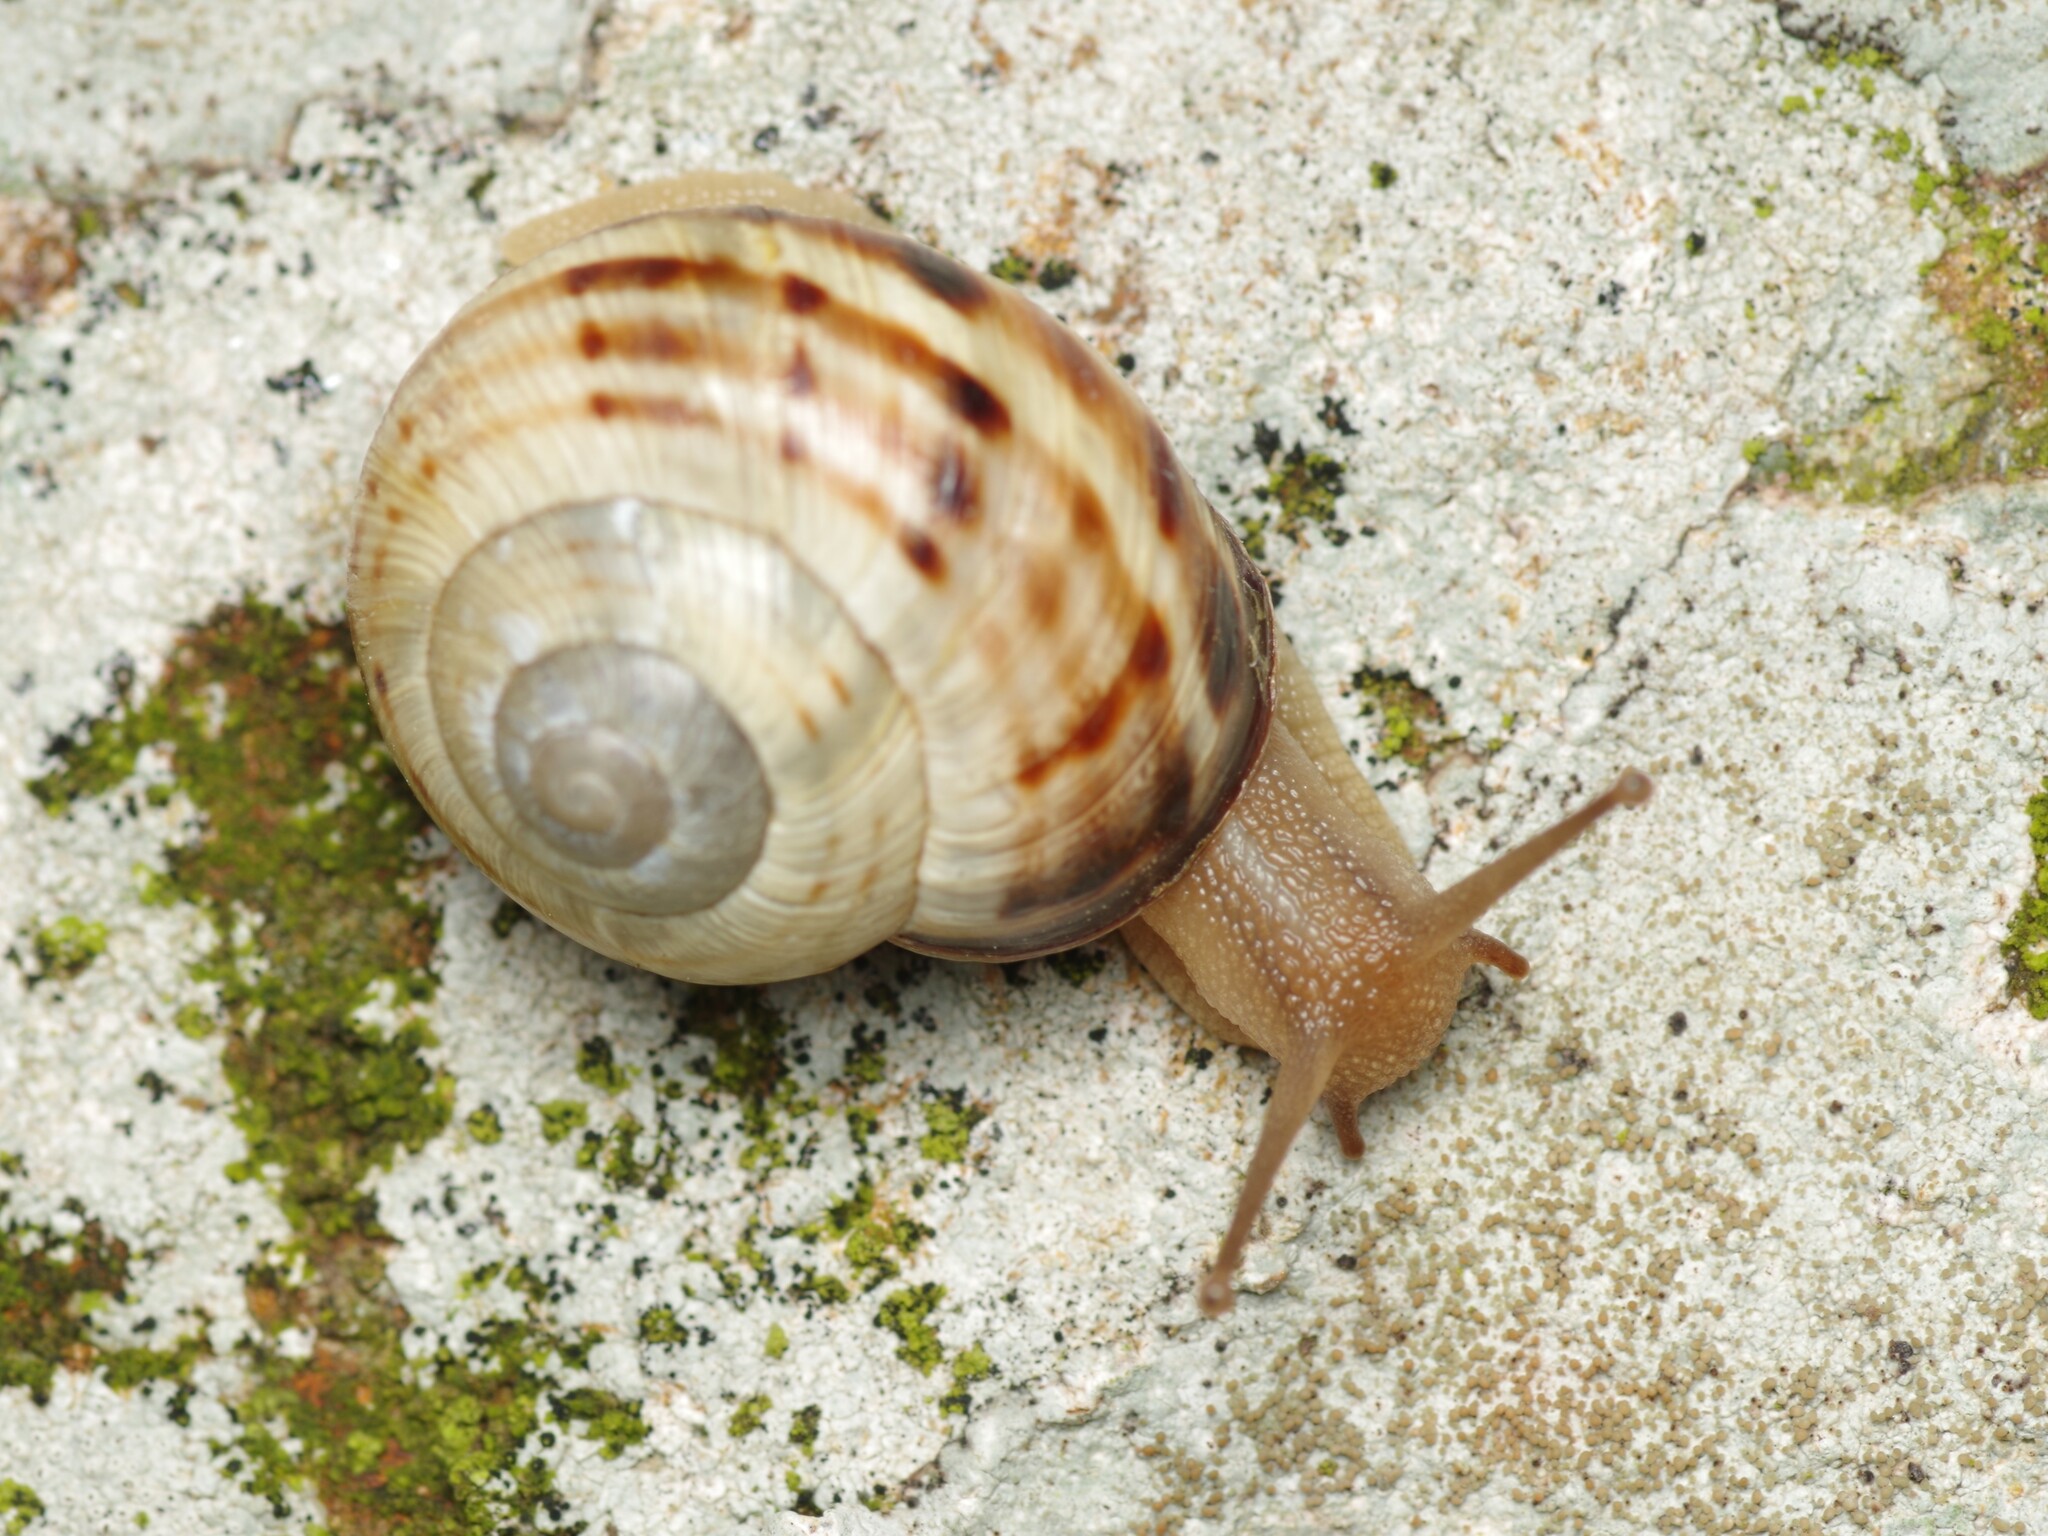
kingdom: Animalia
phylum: Mollusca
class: Gastropoda
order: Stylommatophora
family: Helicidae
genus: Cepaea
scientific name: Cepaea nemoralis
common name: Grovesnail
